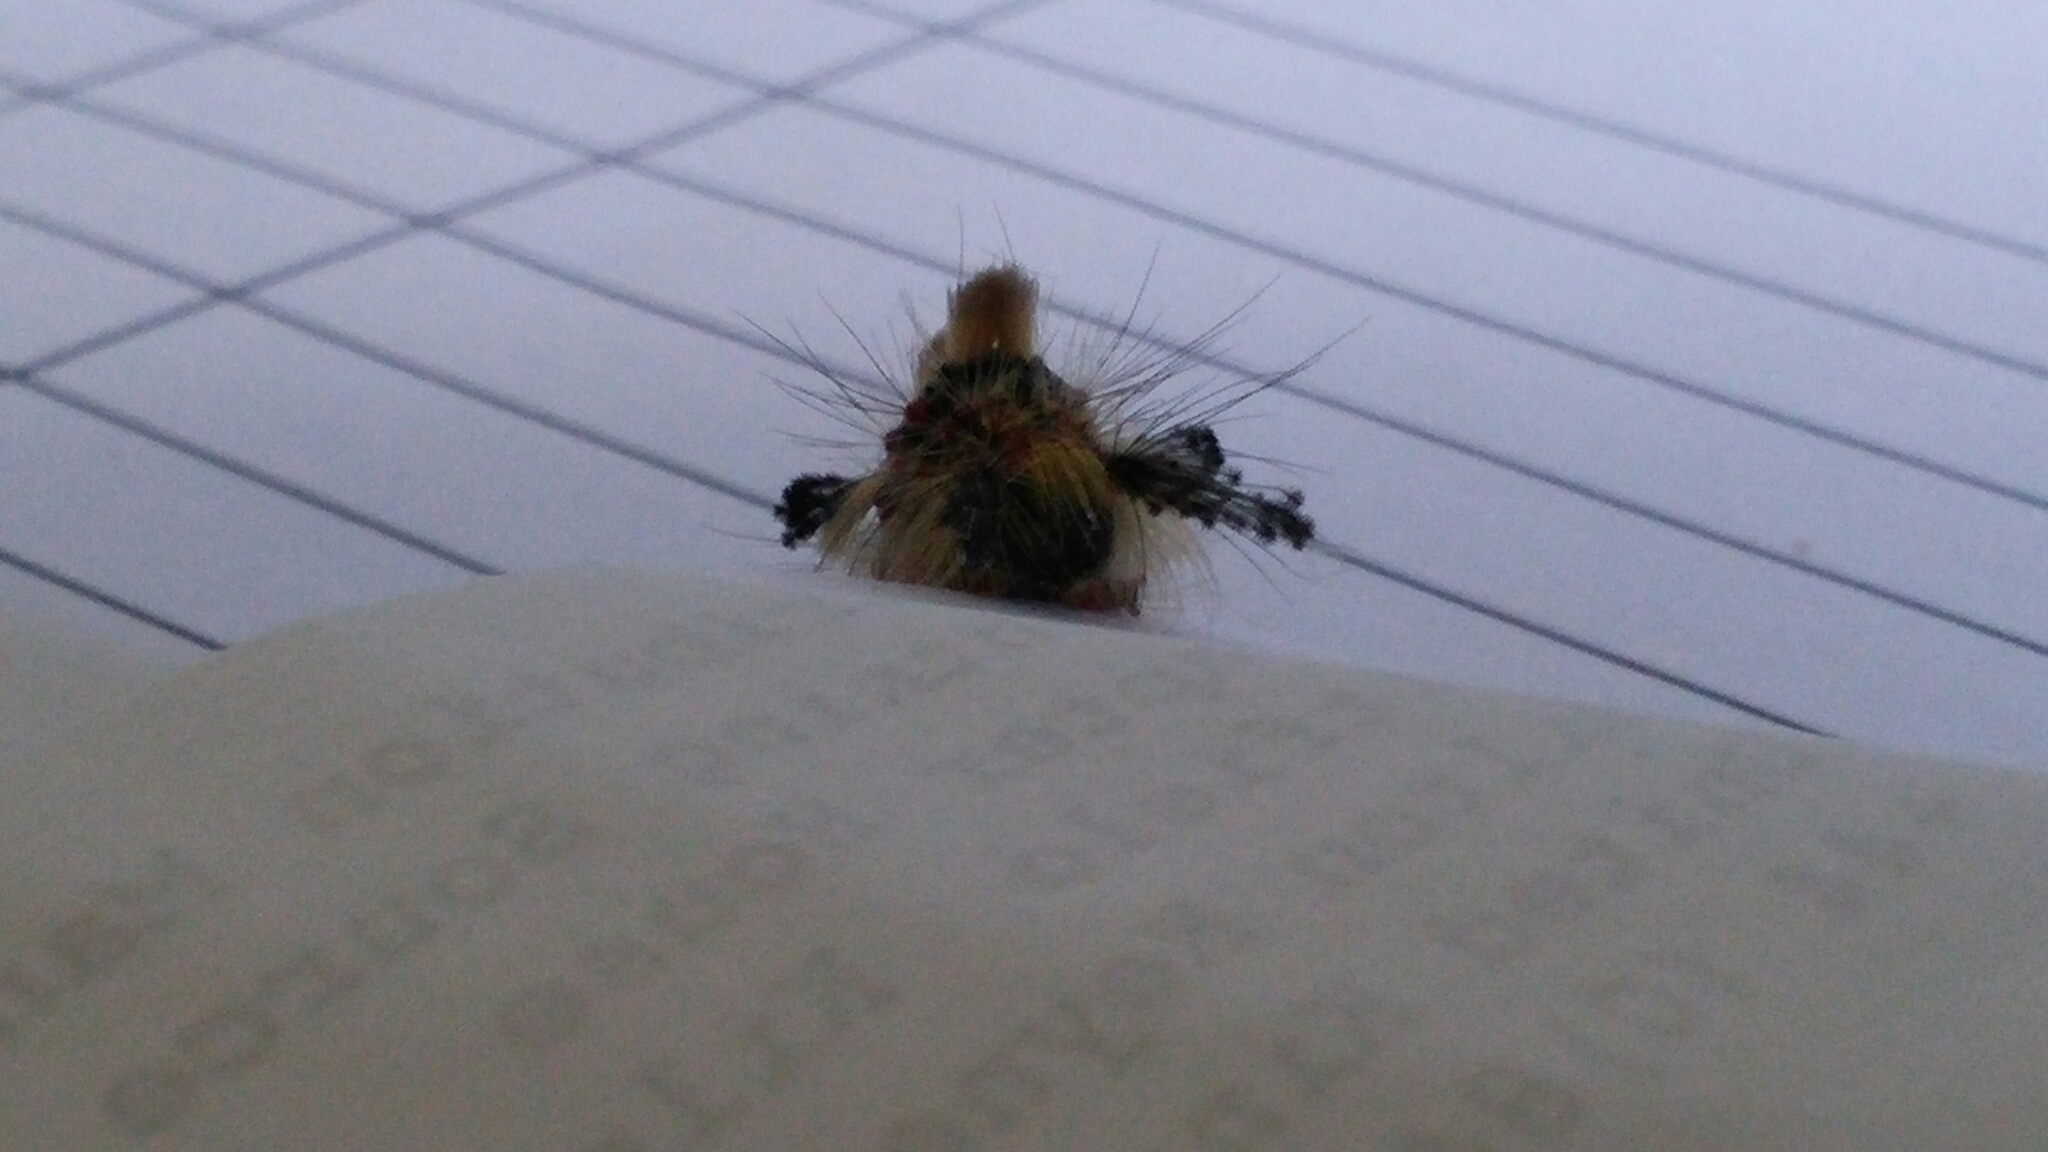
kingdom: Animalia
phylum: Arthropoda
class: Insecta
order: Lepidoptera
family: Erebidae
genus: Orgyia
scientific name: Orgyia antiqua
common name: Vapourer
